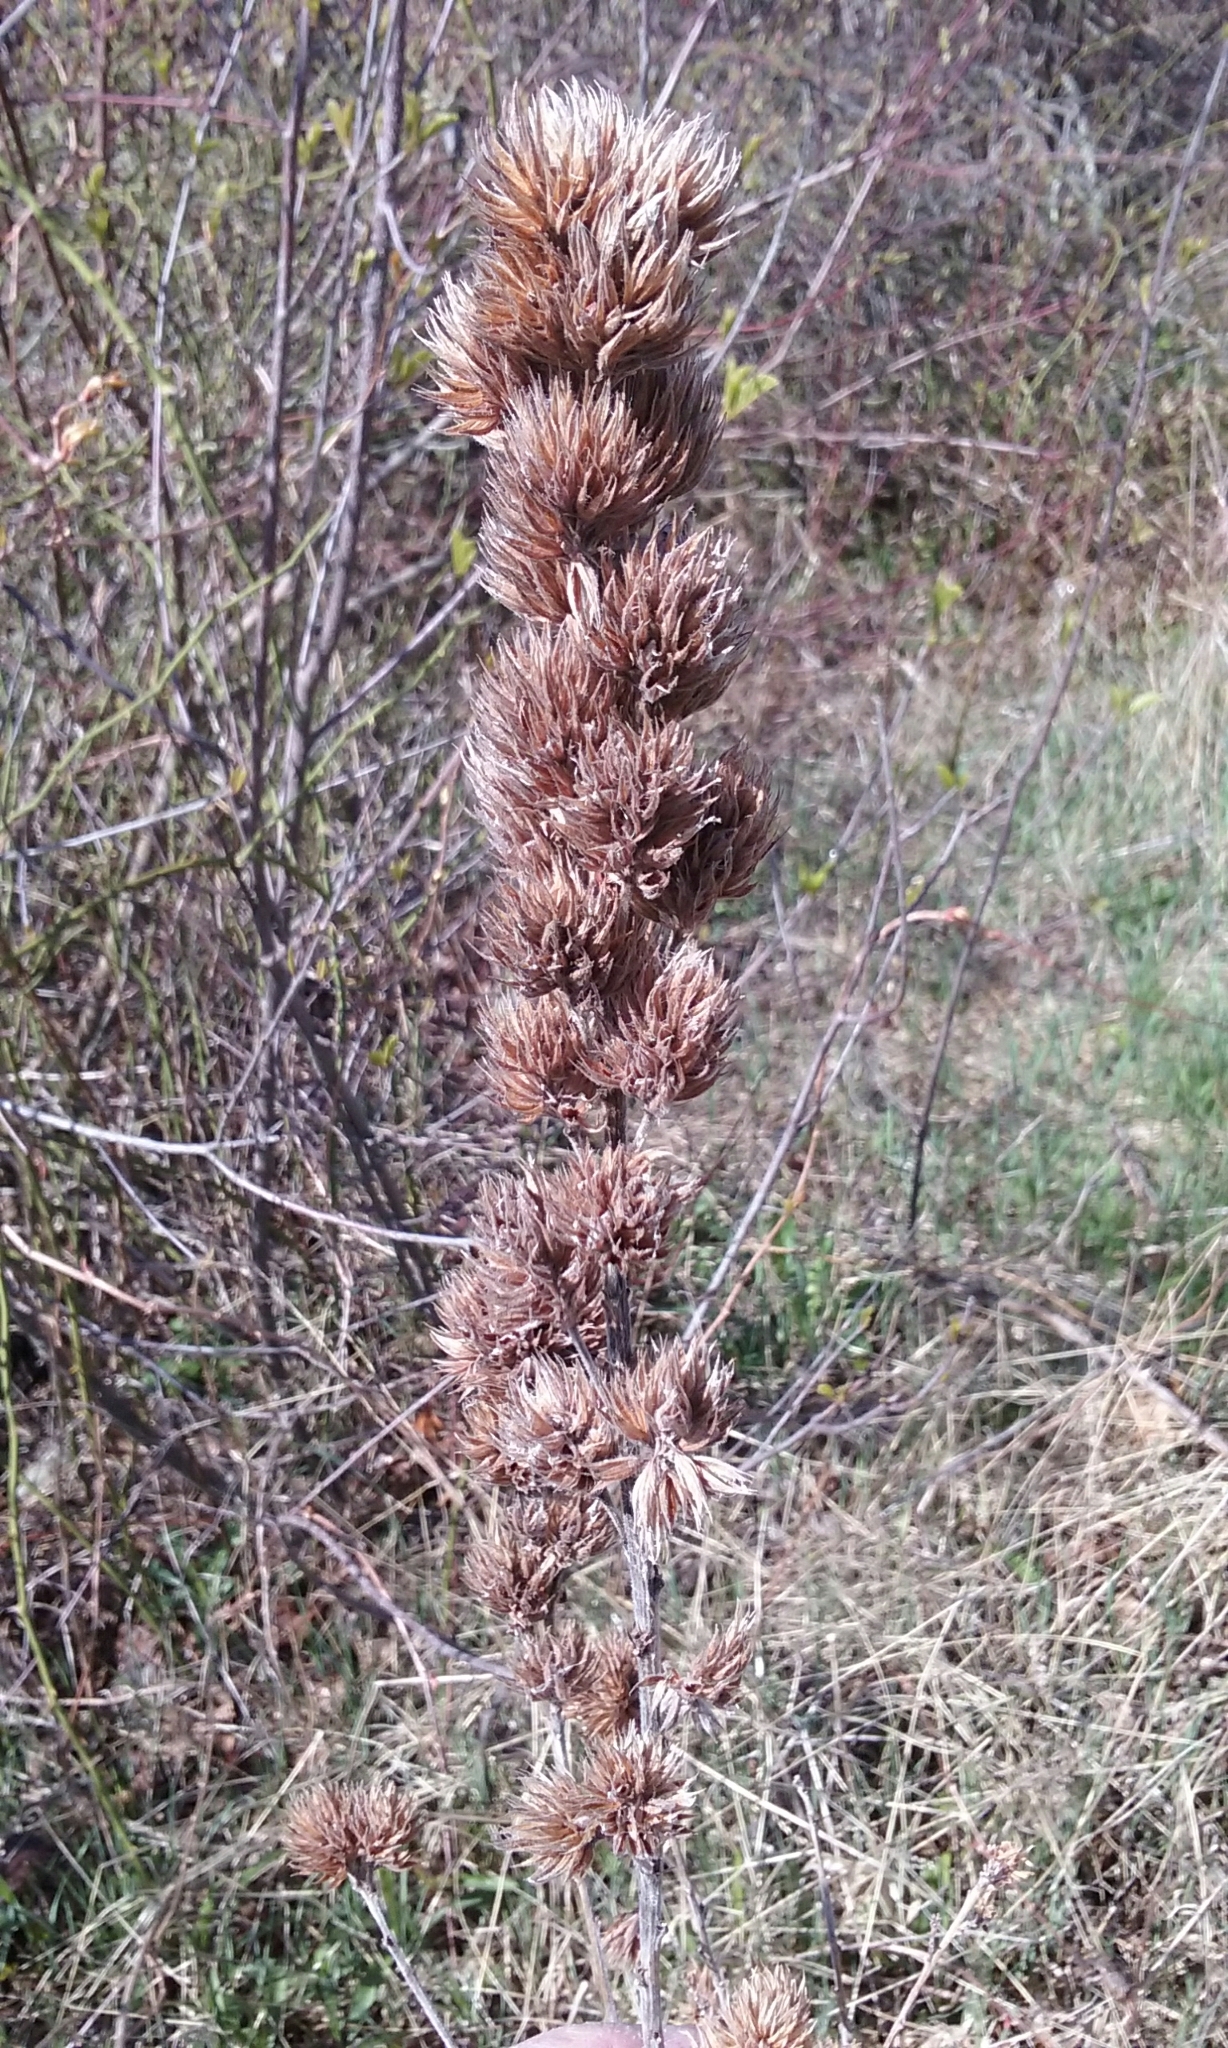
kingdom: Plantae
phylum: Tracheophyta
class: Magnoliopsida
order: Fabales
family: Fabaceae
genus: Lespedeza
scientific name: Lespedeza capitata
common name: Dusty clover
